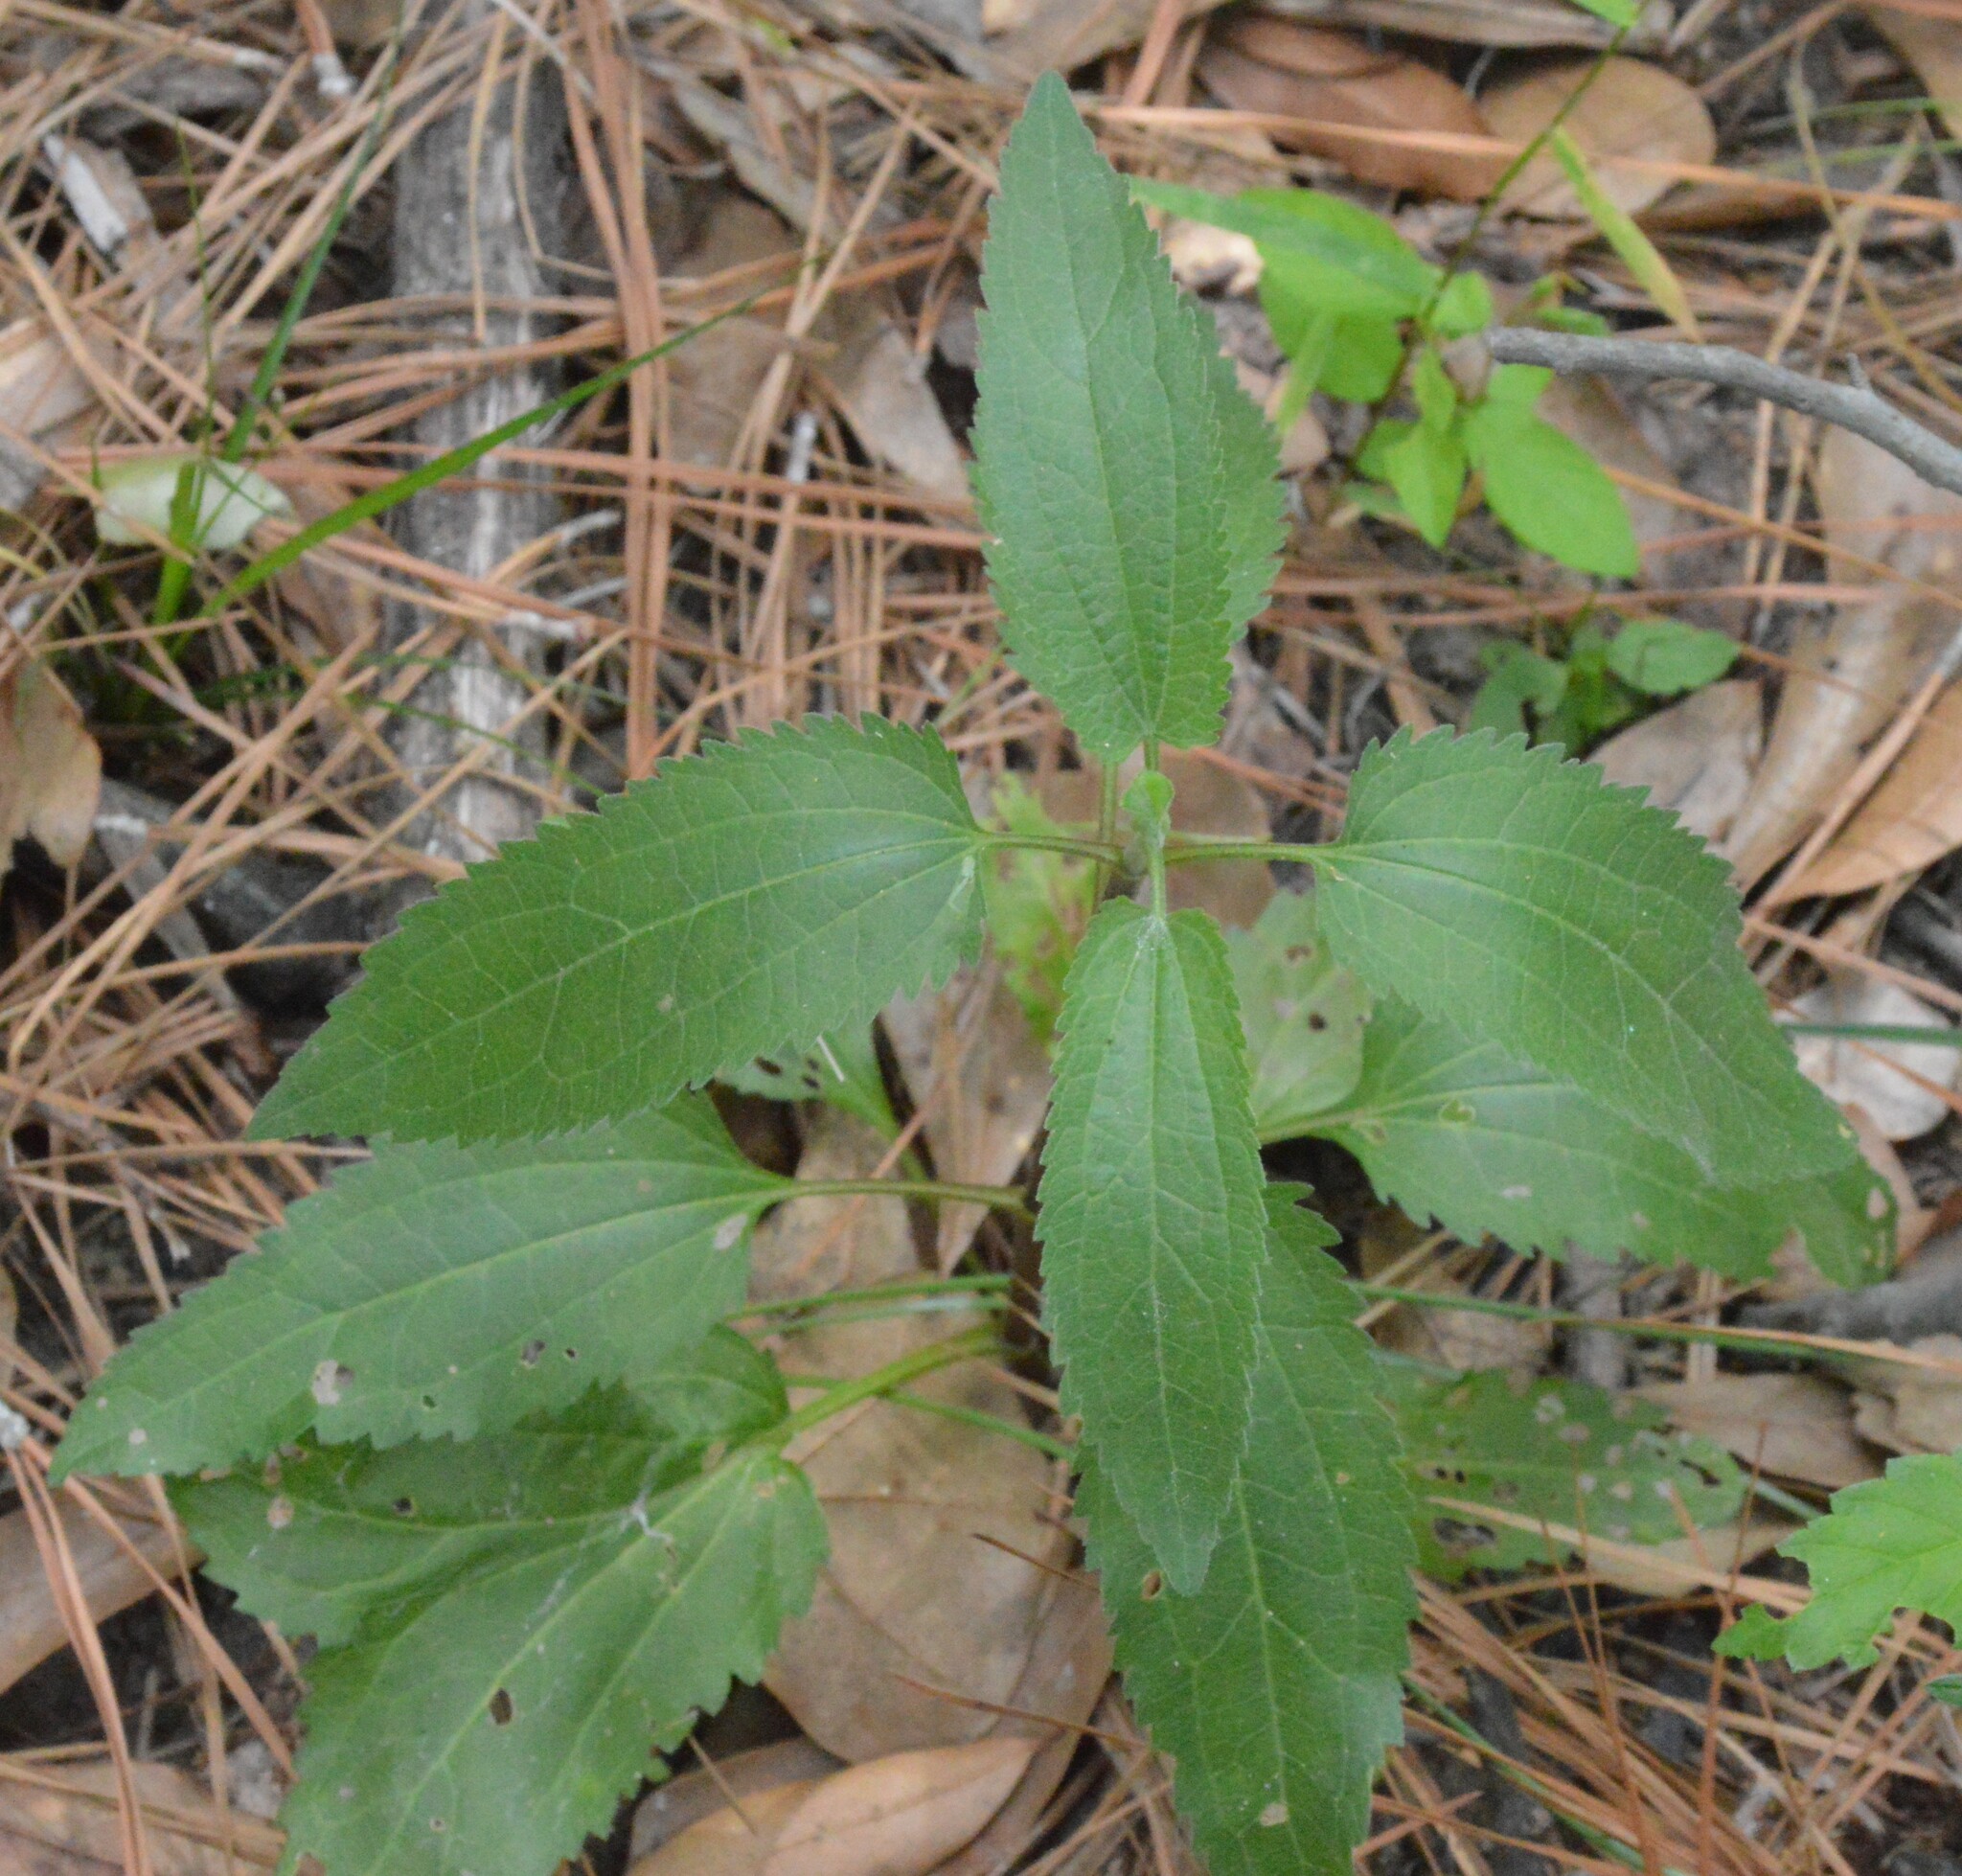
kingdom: Plantae
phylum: Tracheophyta
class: Magnoliopsida
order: Asterales
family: Asteraceae
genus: Eupatorium
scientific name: Eupatorium serotinum
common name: Late boneset
